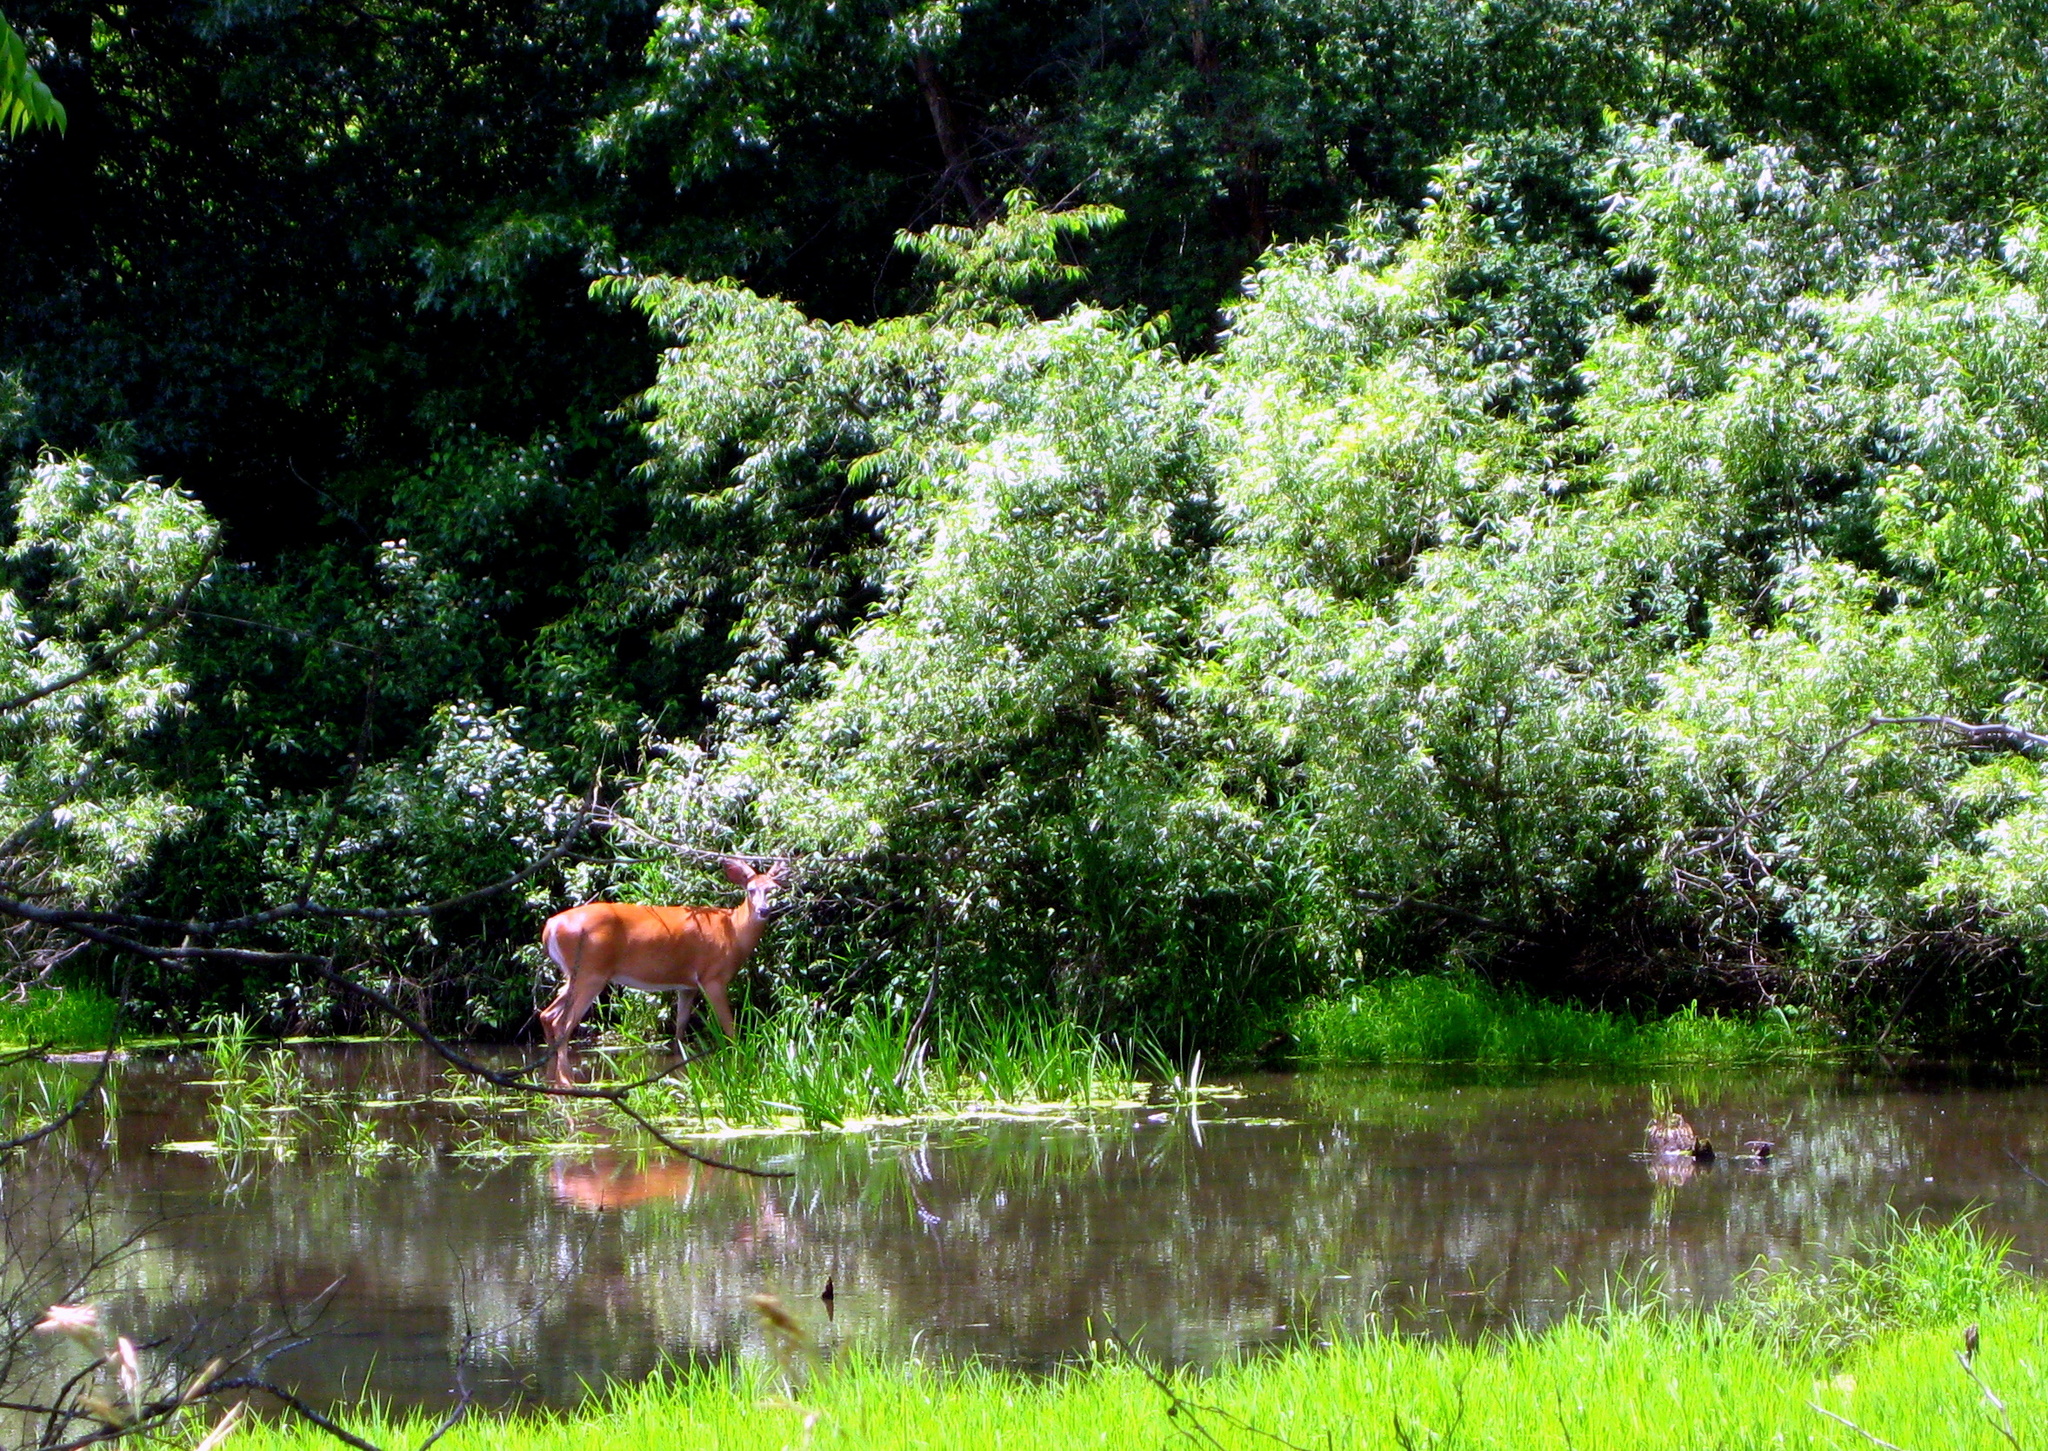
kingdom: Animalia
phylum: Chordata
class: Mammalia
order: Artiodactyla
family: Cervidae
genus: Odocoileus
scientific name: Odocoileus virginianus
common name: White-tailed deer
